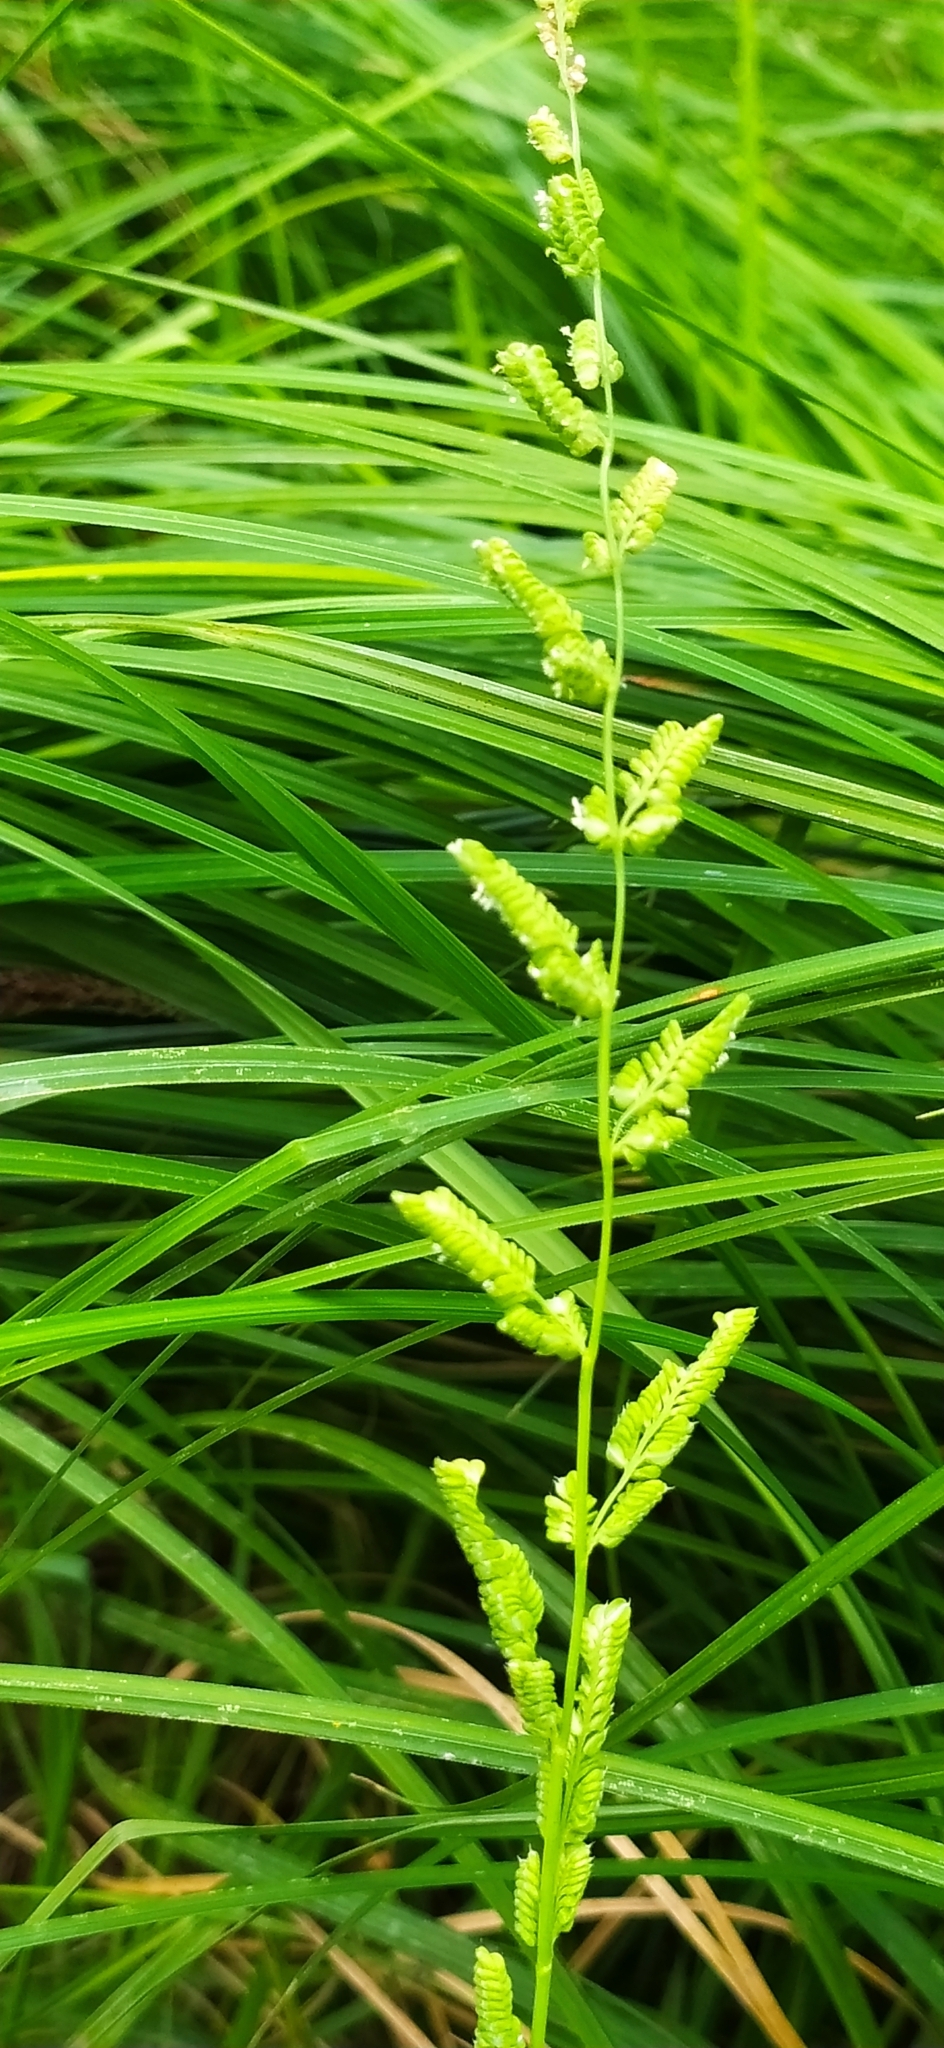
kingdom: Plantae
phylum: Tracheophyta
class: Liliopsida
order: Poales
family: Poaceae
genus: Beckmannia
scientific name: Beckmannia syzigachne
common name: American slough-grass
